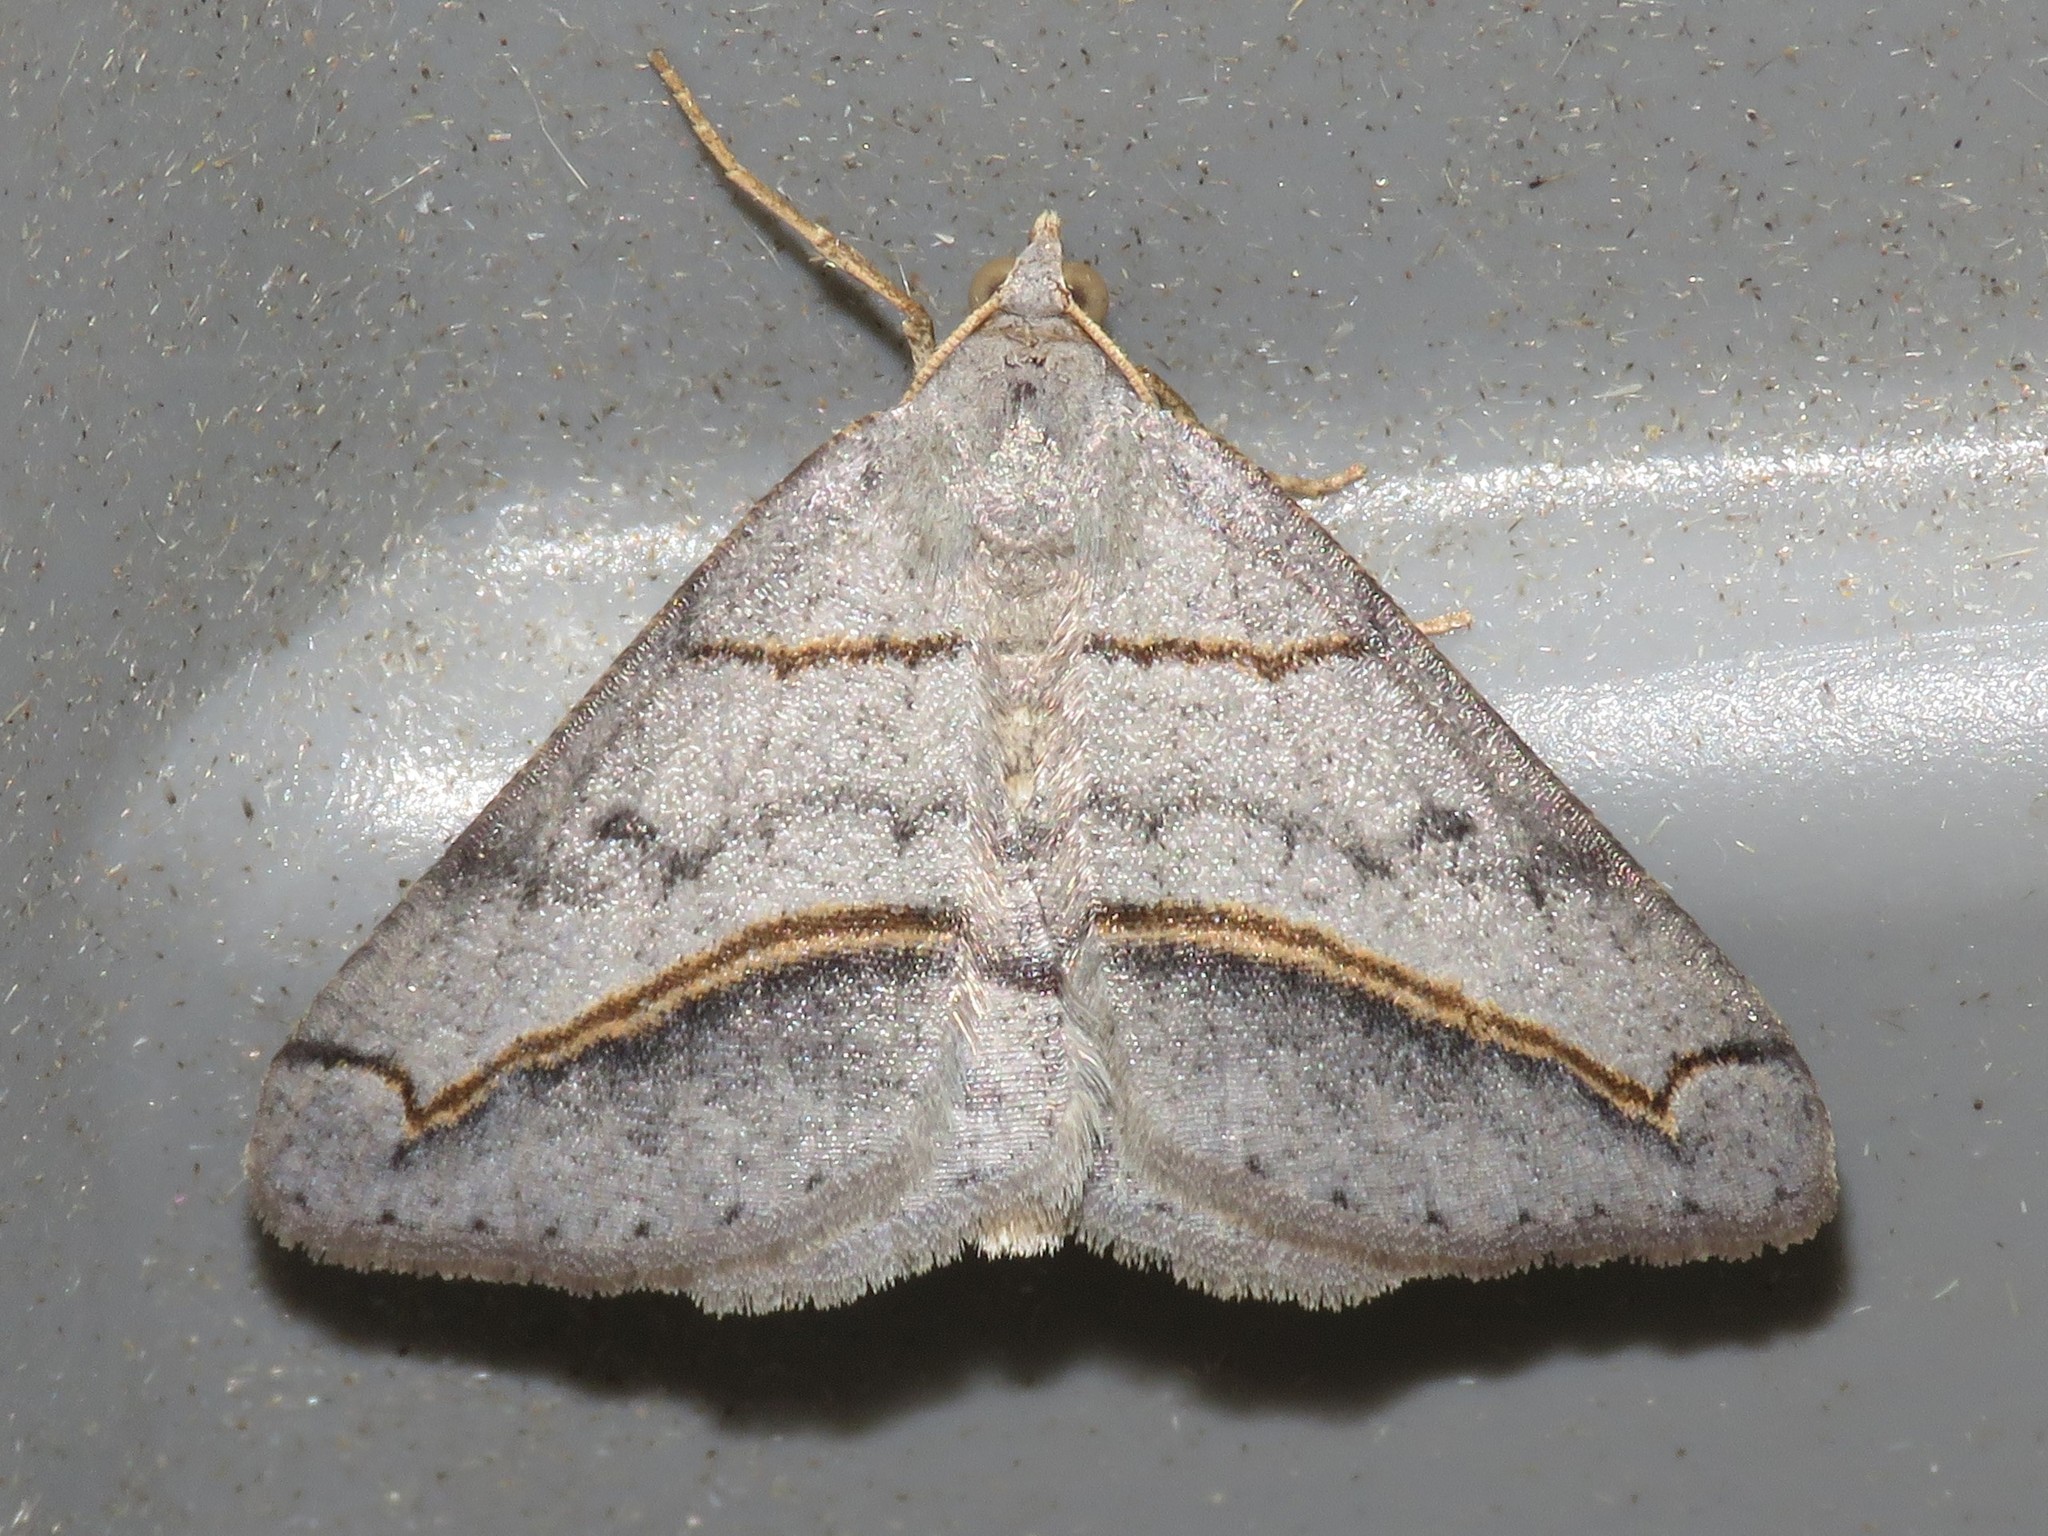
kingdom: Animalia
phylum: Arthropoda
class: Insecta
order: Lepidoptera
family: Geometridae
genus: Digrammia
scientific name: Digrammia mellistrigata
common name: Yellow-lined angle
